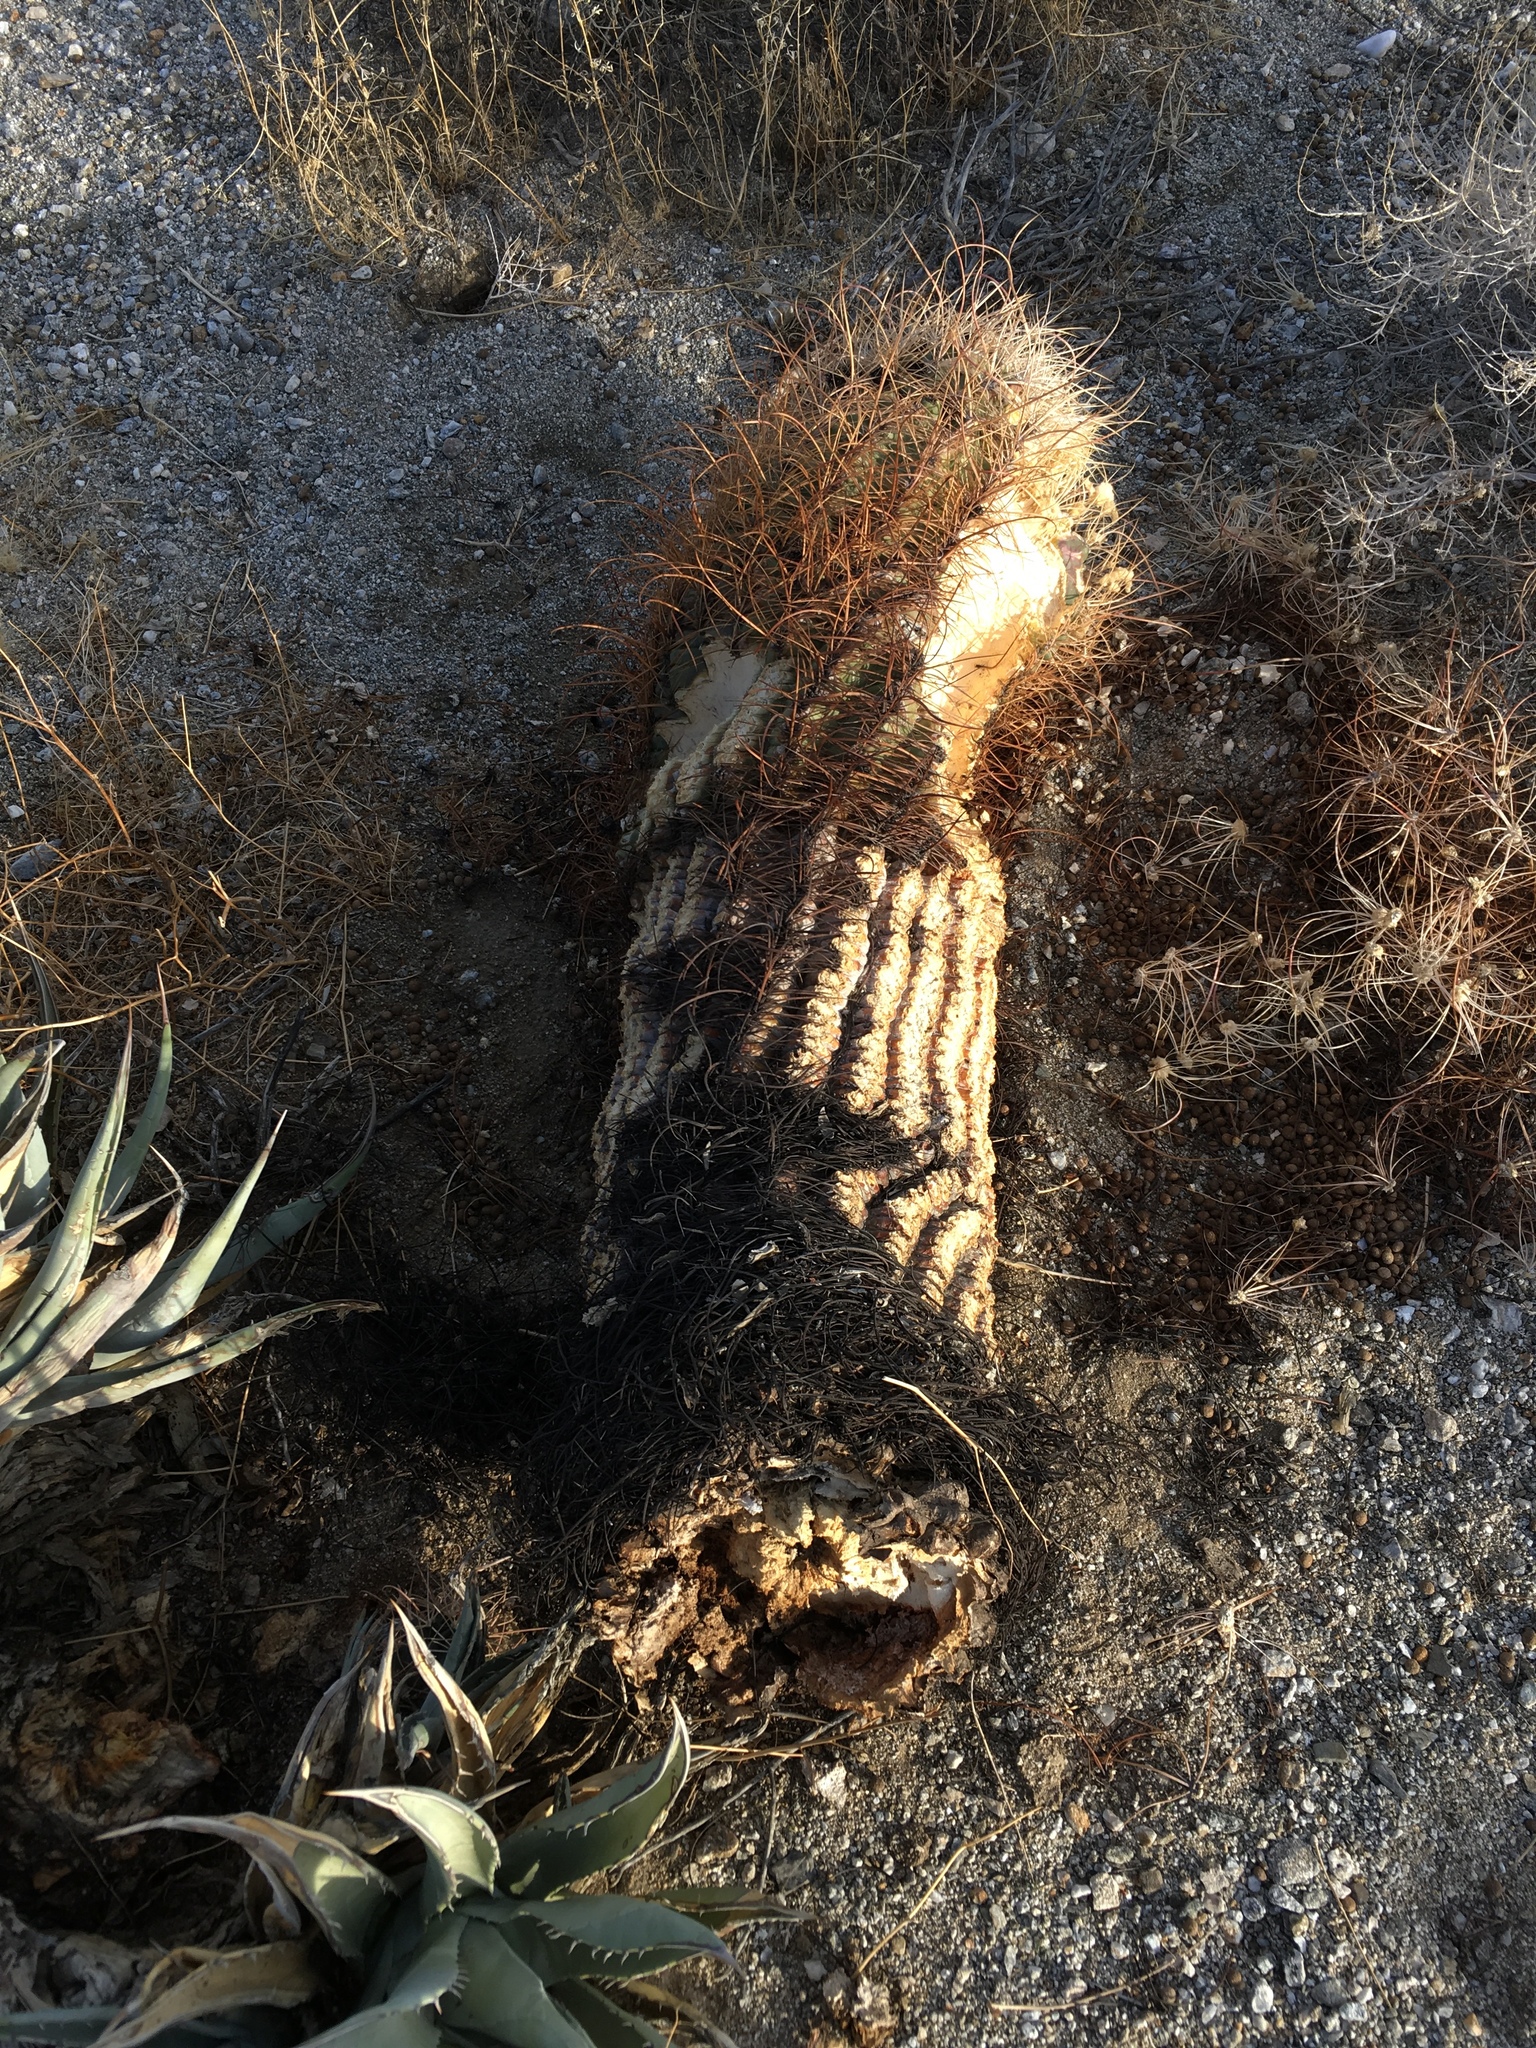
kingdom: Plantae
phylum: Tracheophyta
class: Magnoliopsida
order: Caryophyllales
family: Cactaceae
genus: Ferocactus
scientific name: Ferocactus cylindraceus
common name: California barrel cactus
